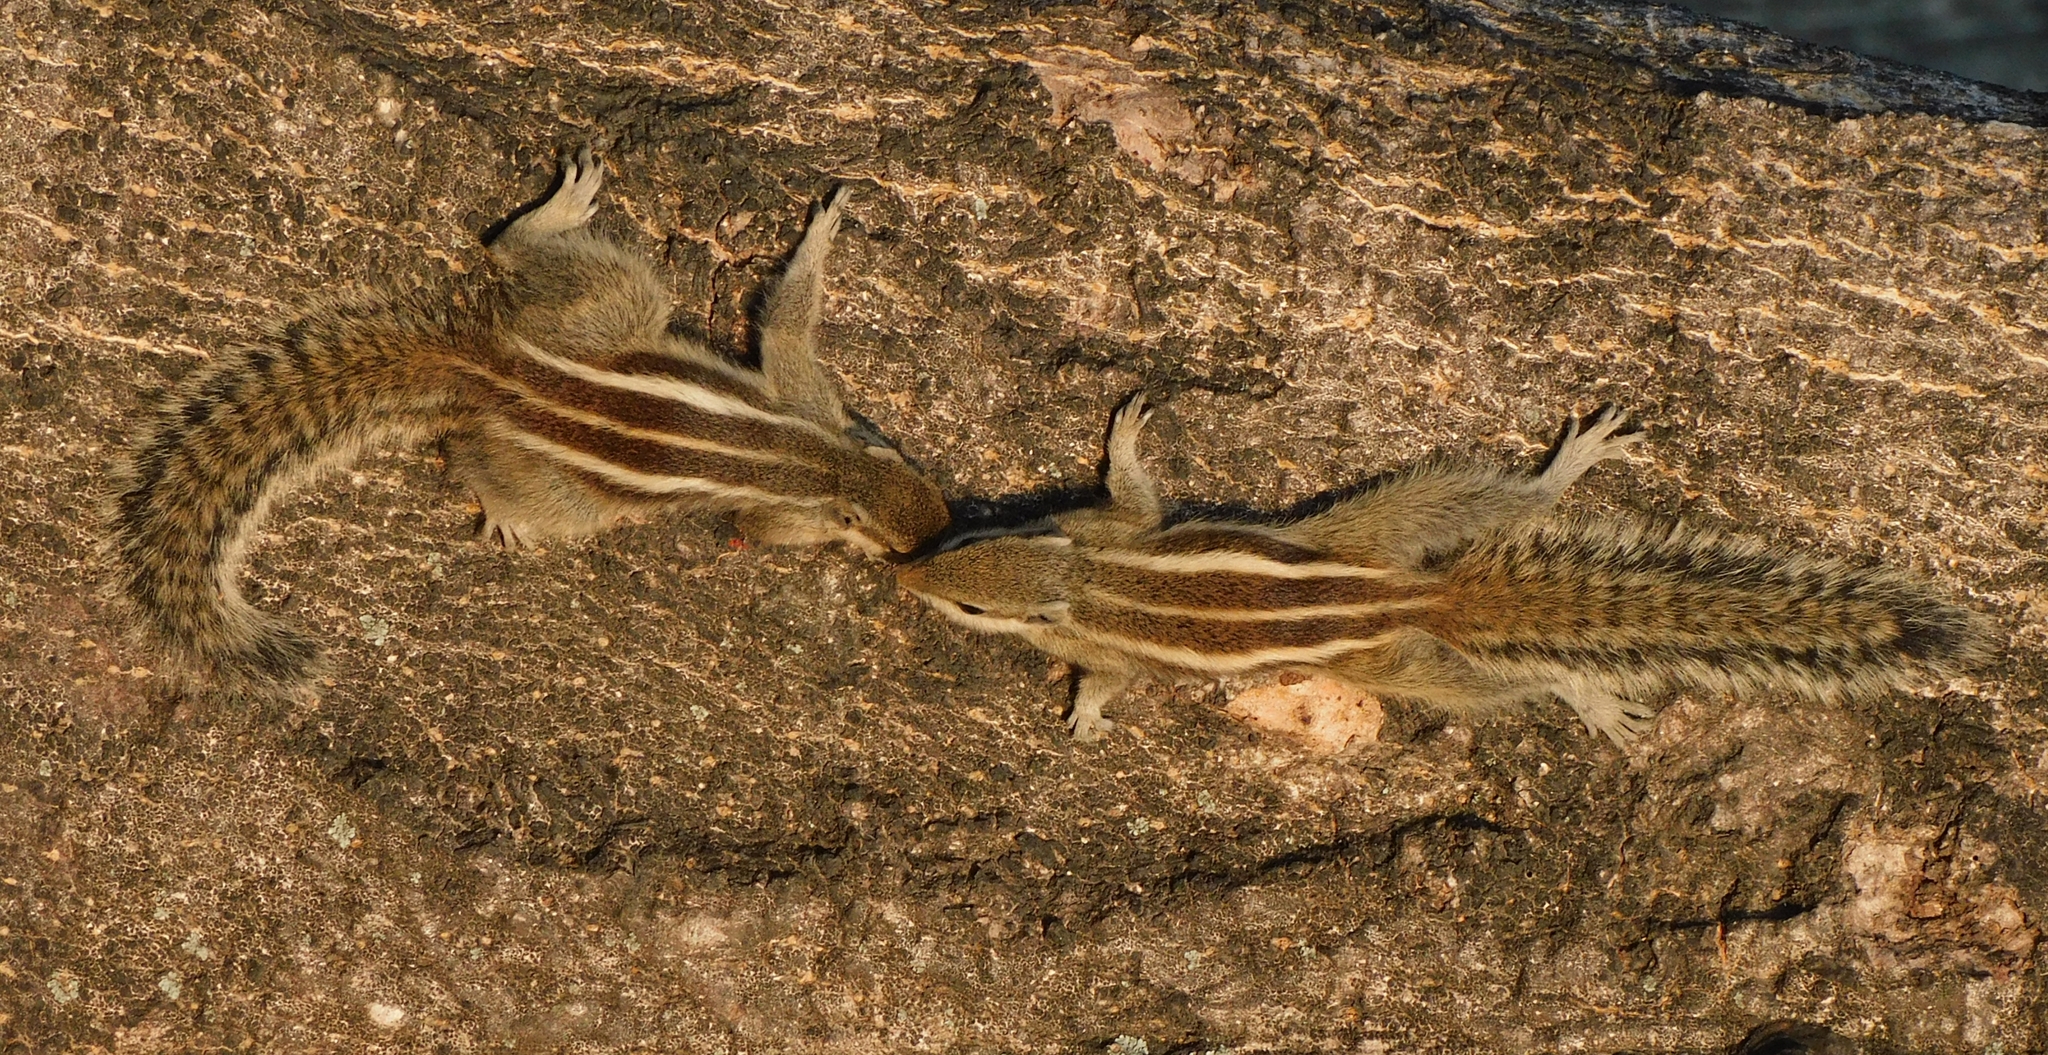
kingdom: Animalia
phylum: Chordata
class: Mammalia
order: Rodentia
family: Sciuridae
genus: Funambulus
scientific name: Funambulus pennantii
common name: Northern palm squirrel
